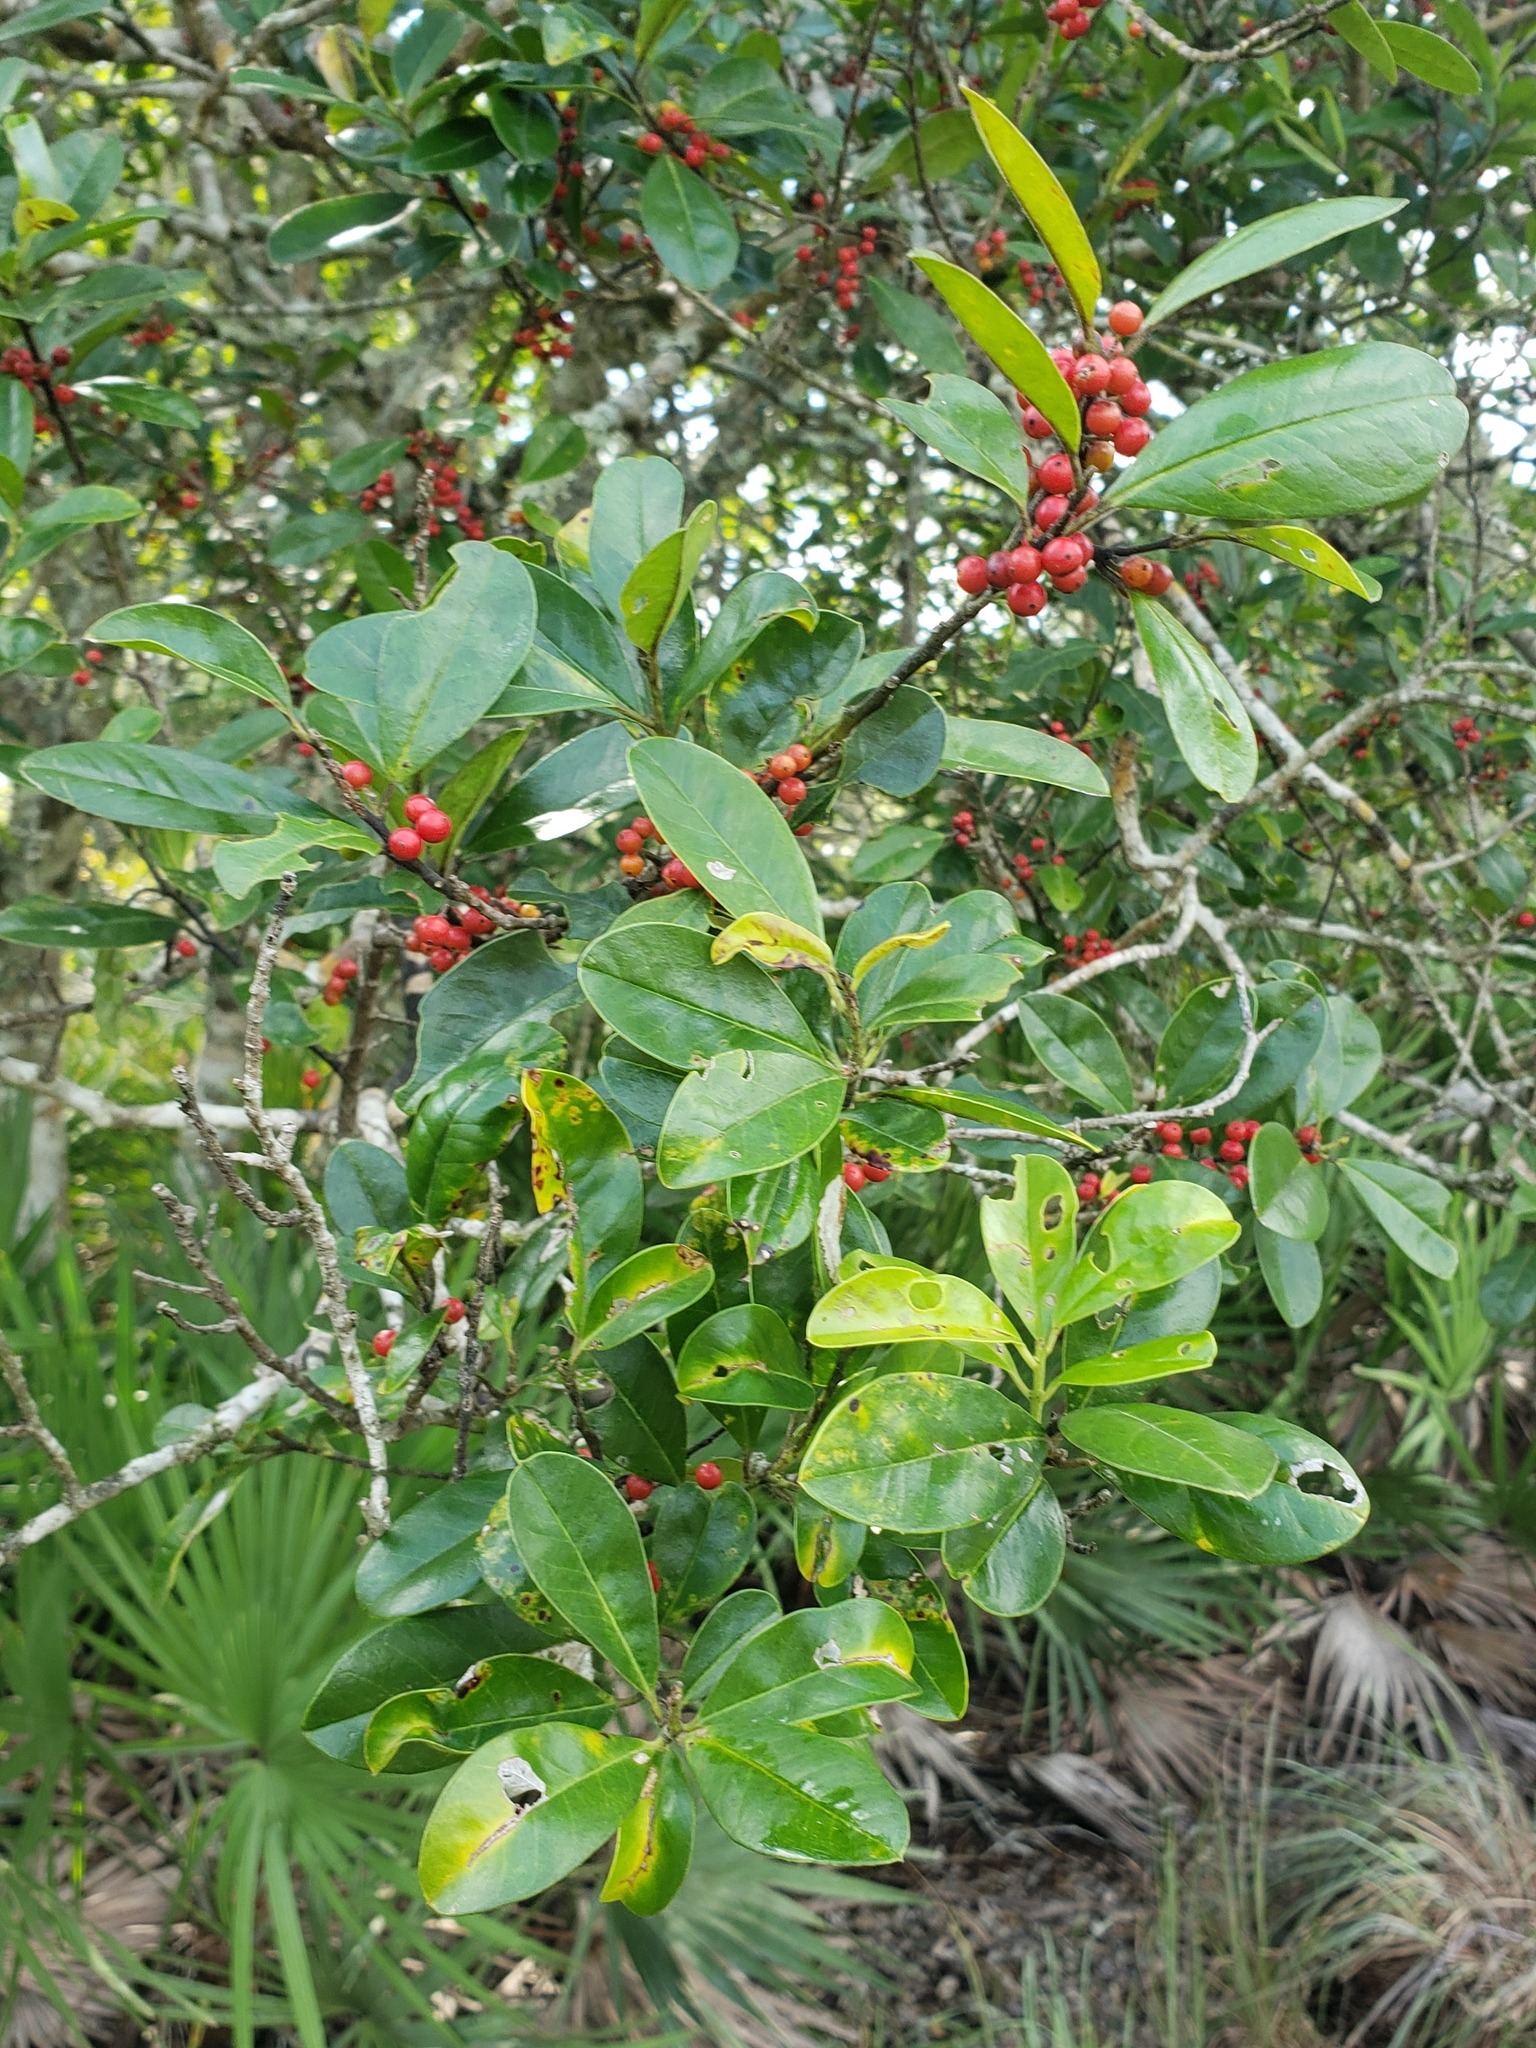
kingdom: Plantae
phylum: Tracheophyta
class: Magnoliopsida
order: Aquifoliales
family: Aquifoliaceae
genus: Ilex
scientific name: Ilex cassine
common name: Dahoon
